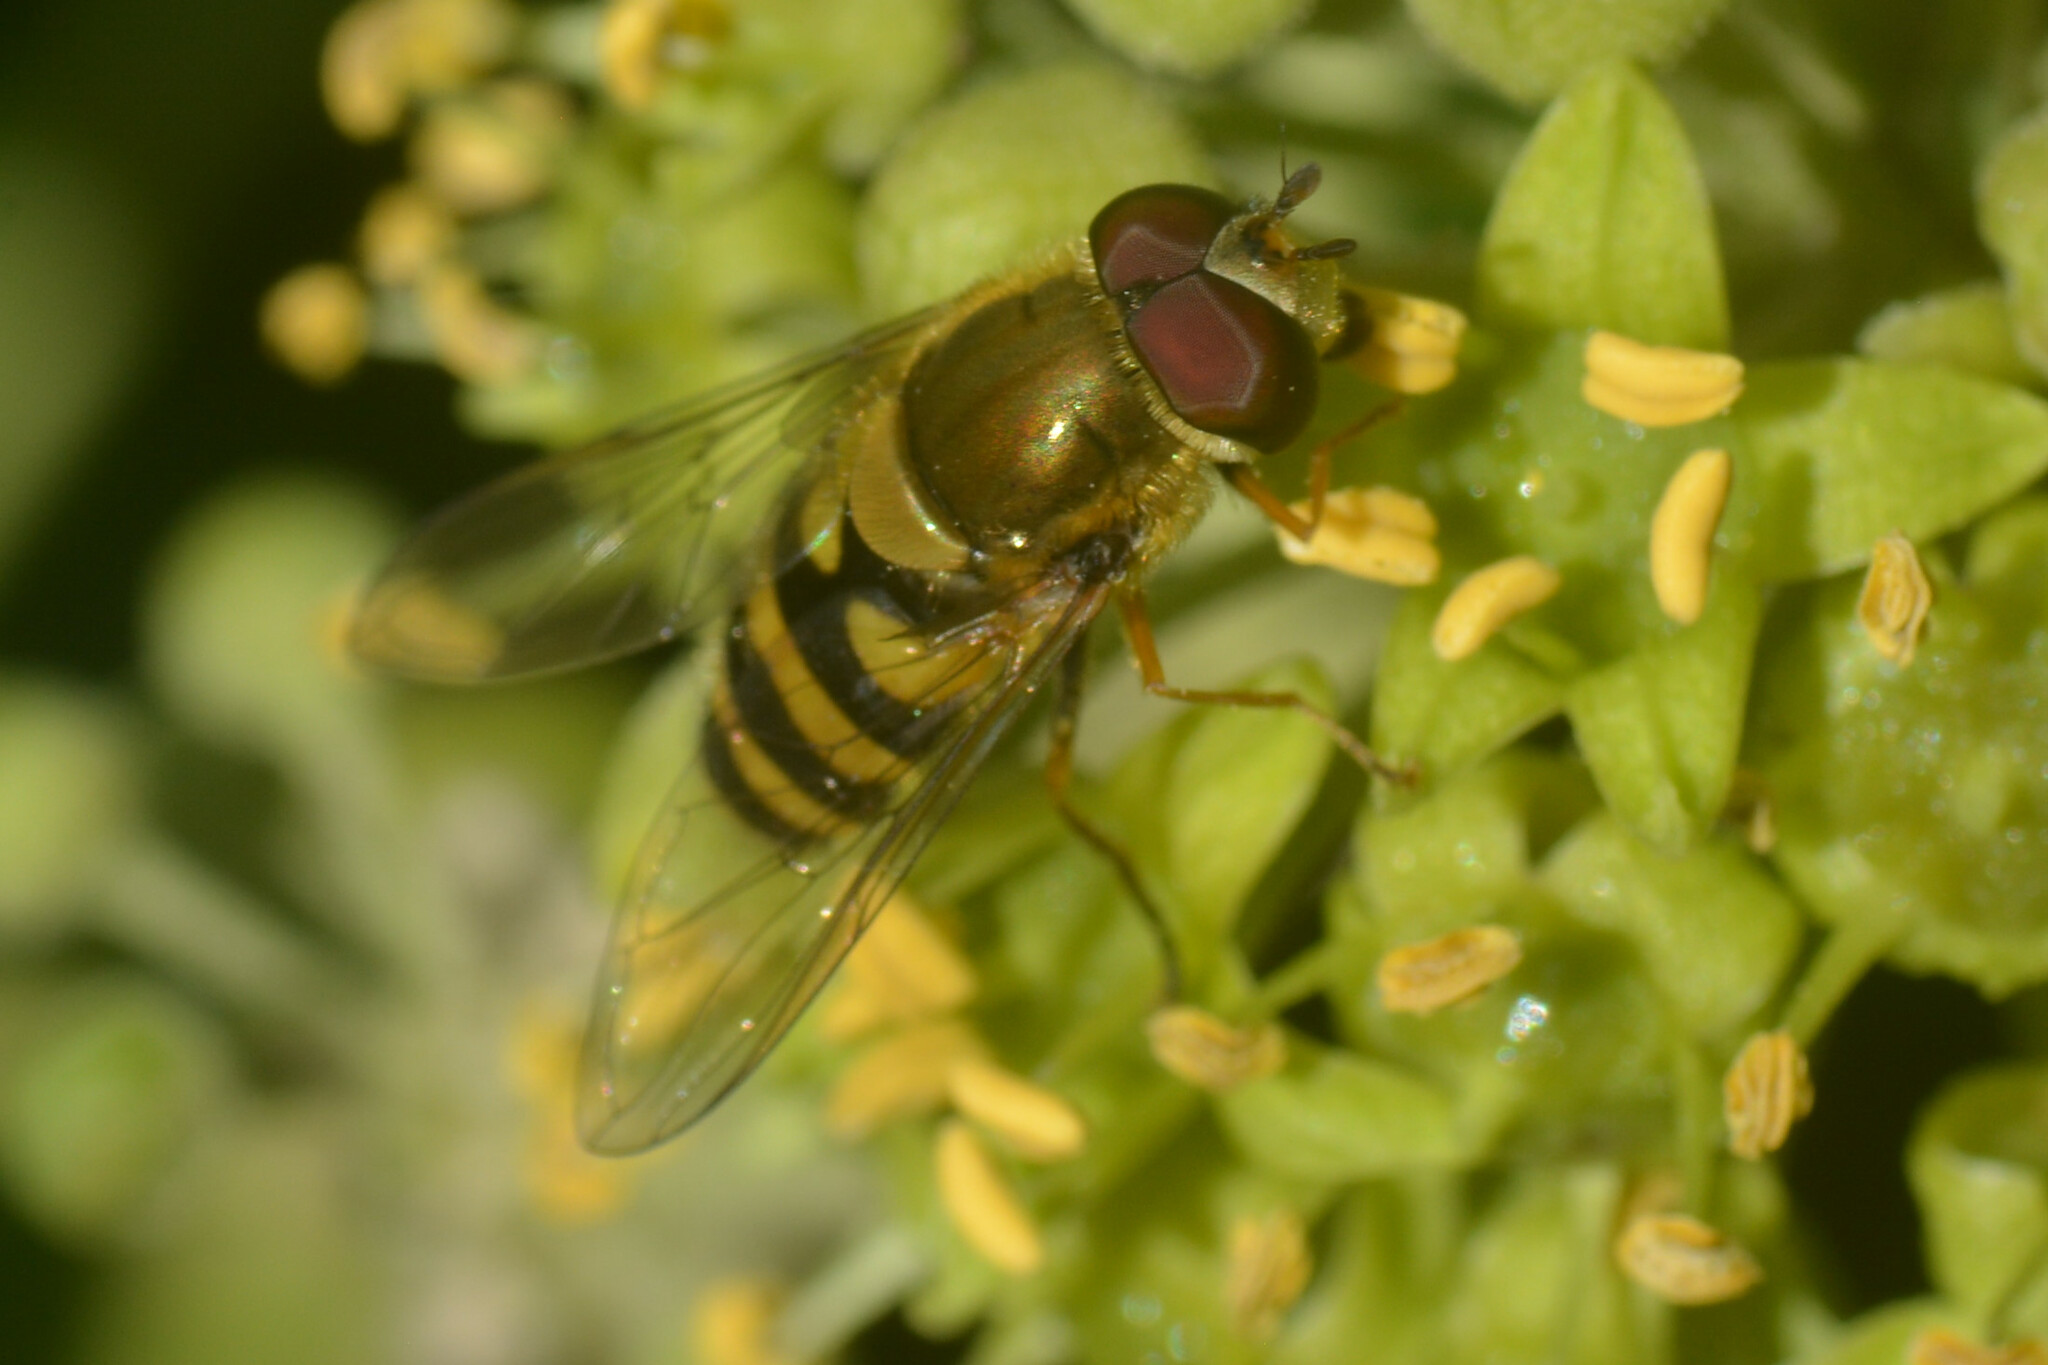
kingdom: Animalia
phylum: Arthropoda
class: Insecta
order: Diptera
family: Syrphidae
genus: Syrphus
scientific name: Syrphus
